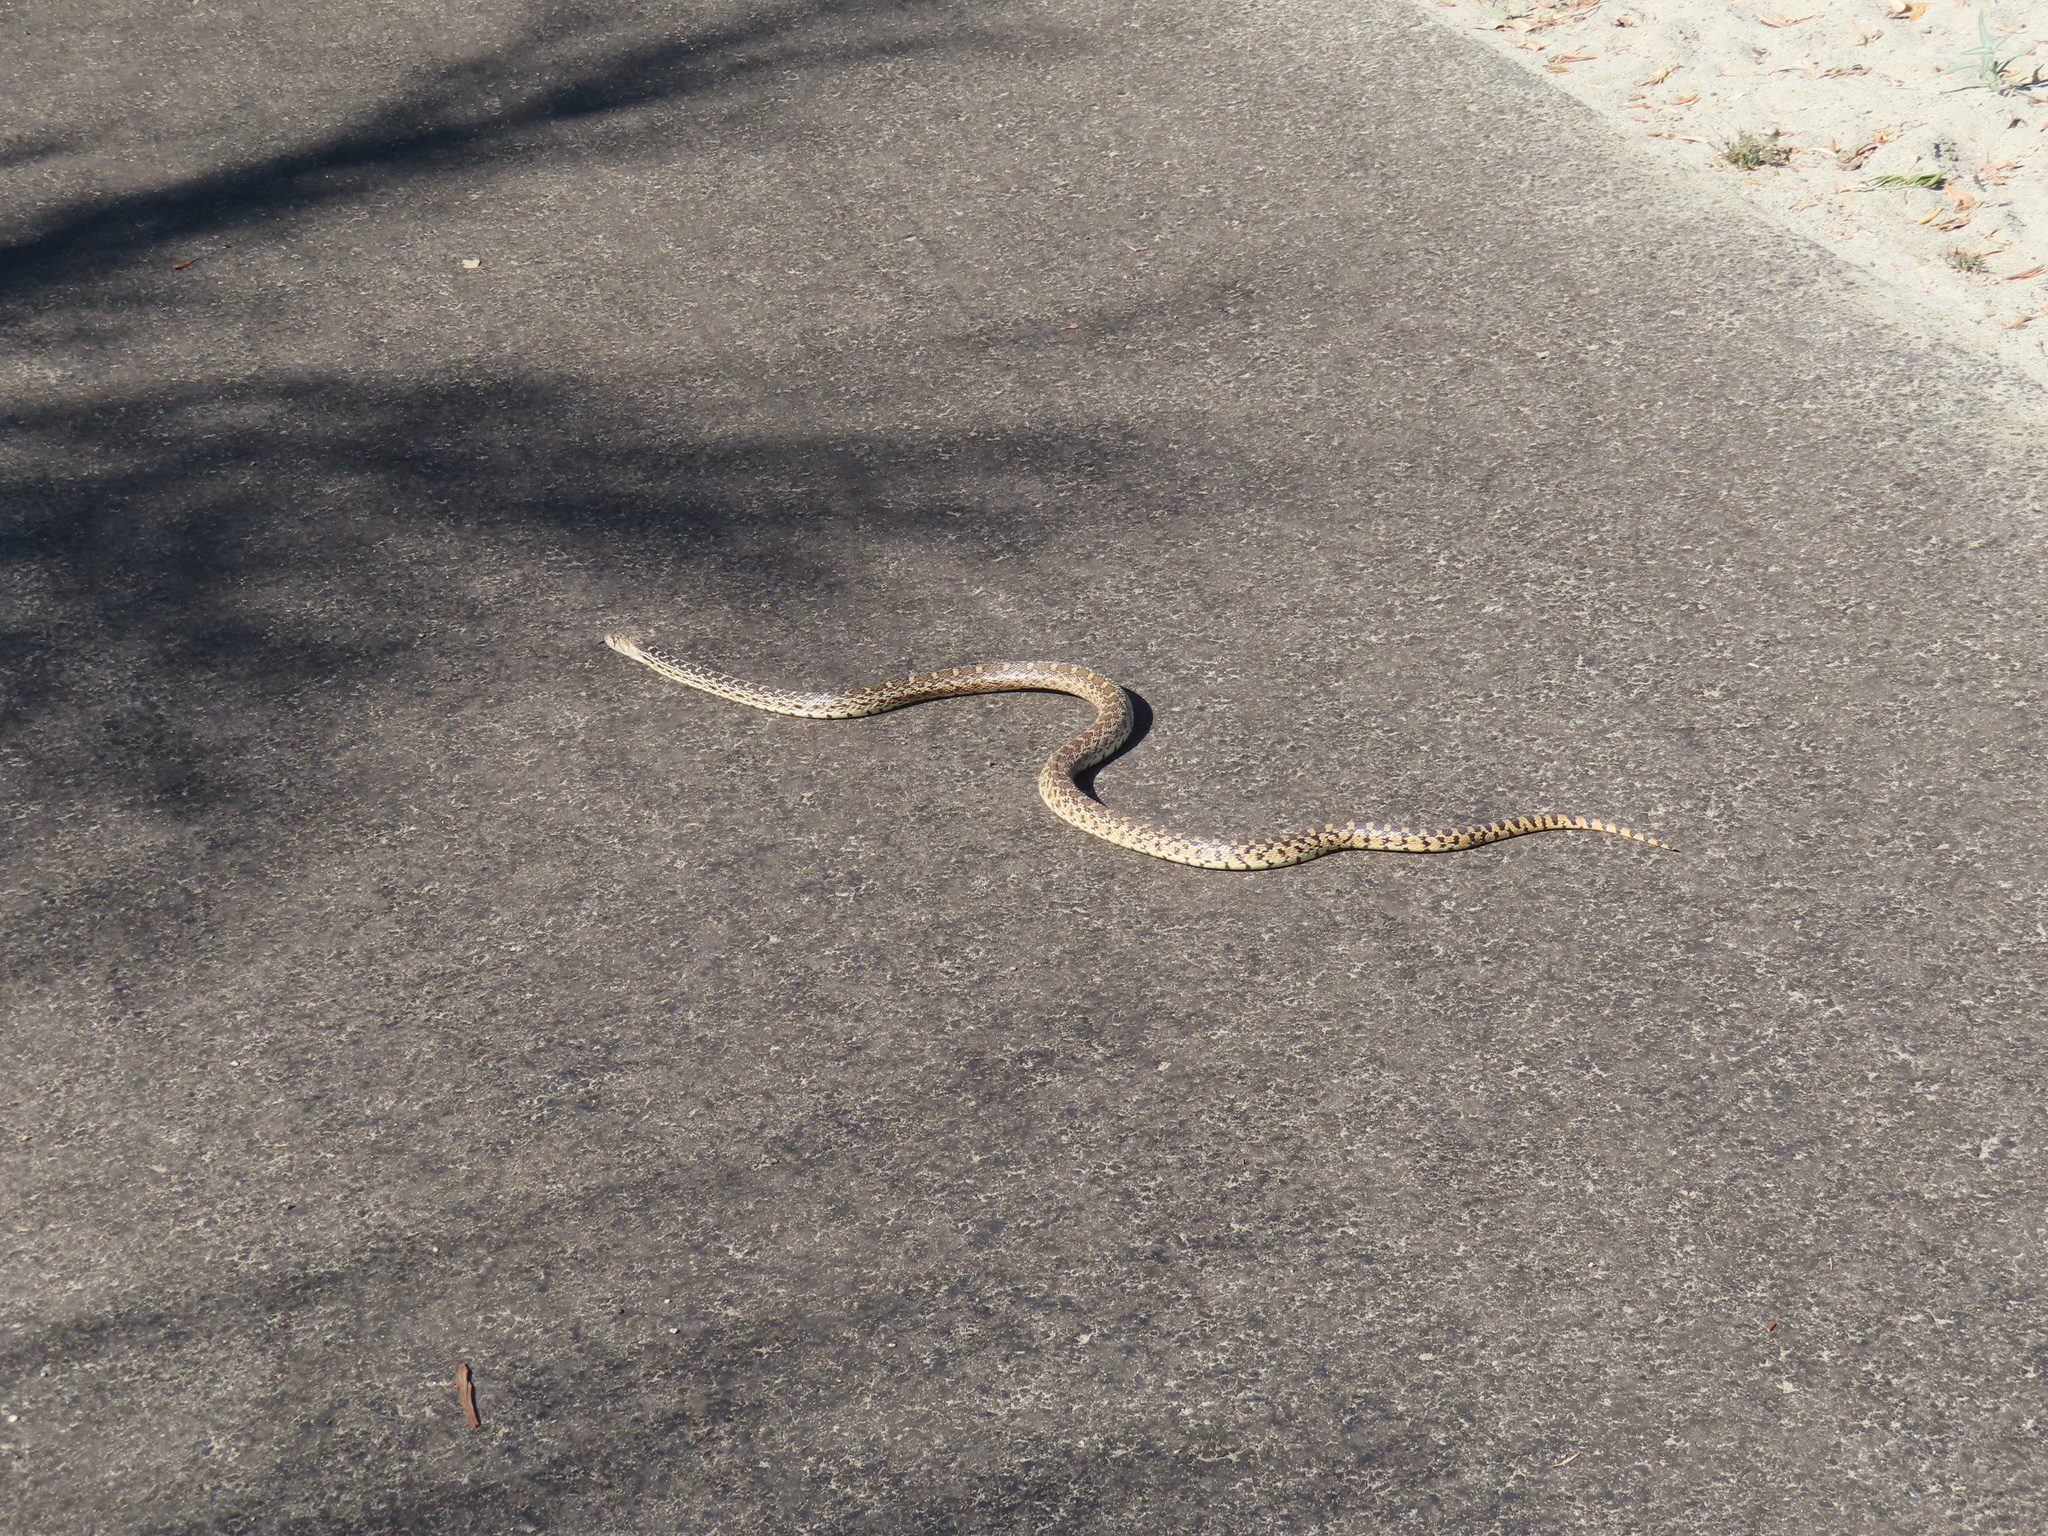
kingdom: Animalia
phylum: Chordata
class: Squamata
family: Colubridae
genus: Pituophis
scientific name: Pituophis catenifer
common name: Gopher snake
